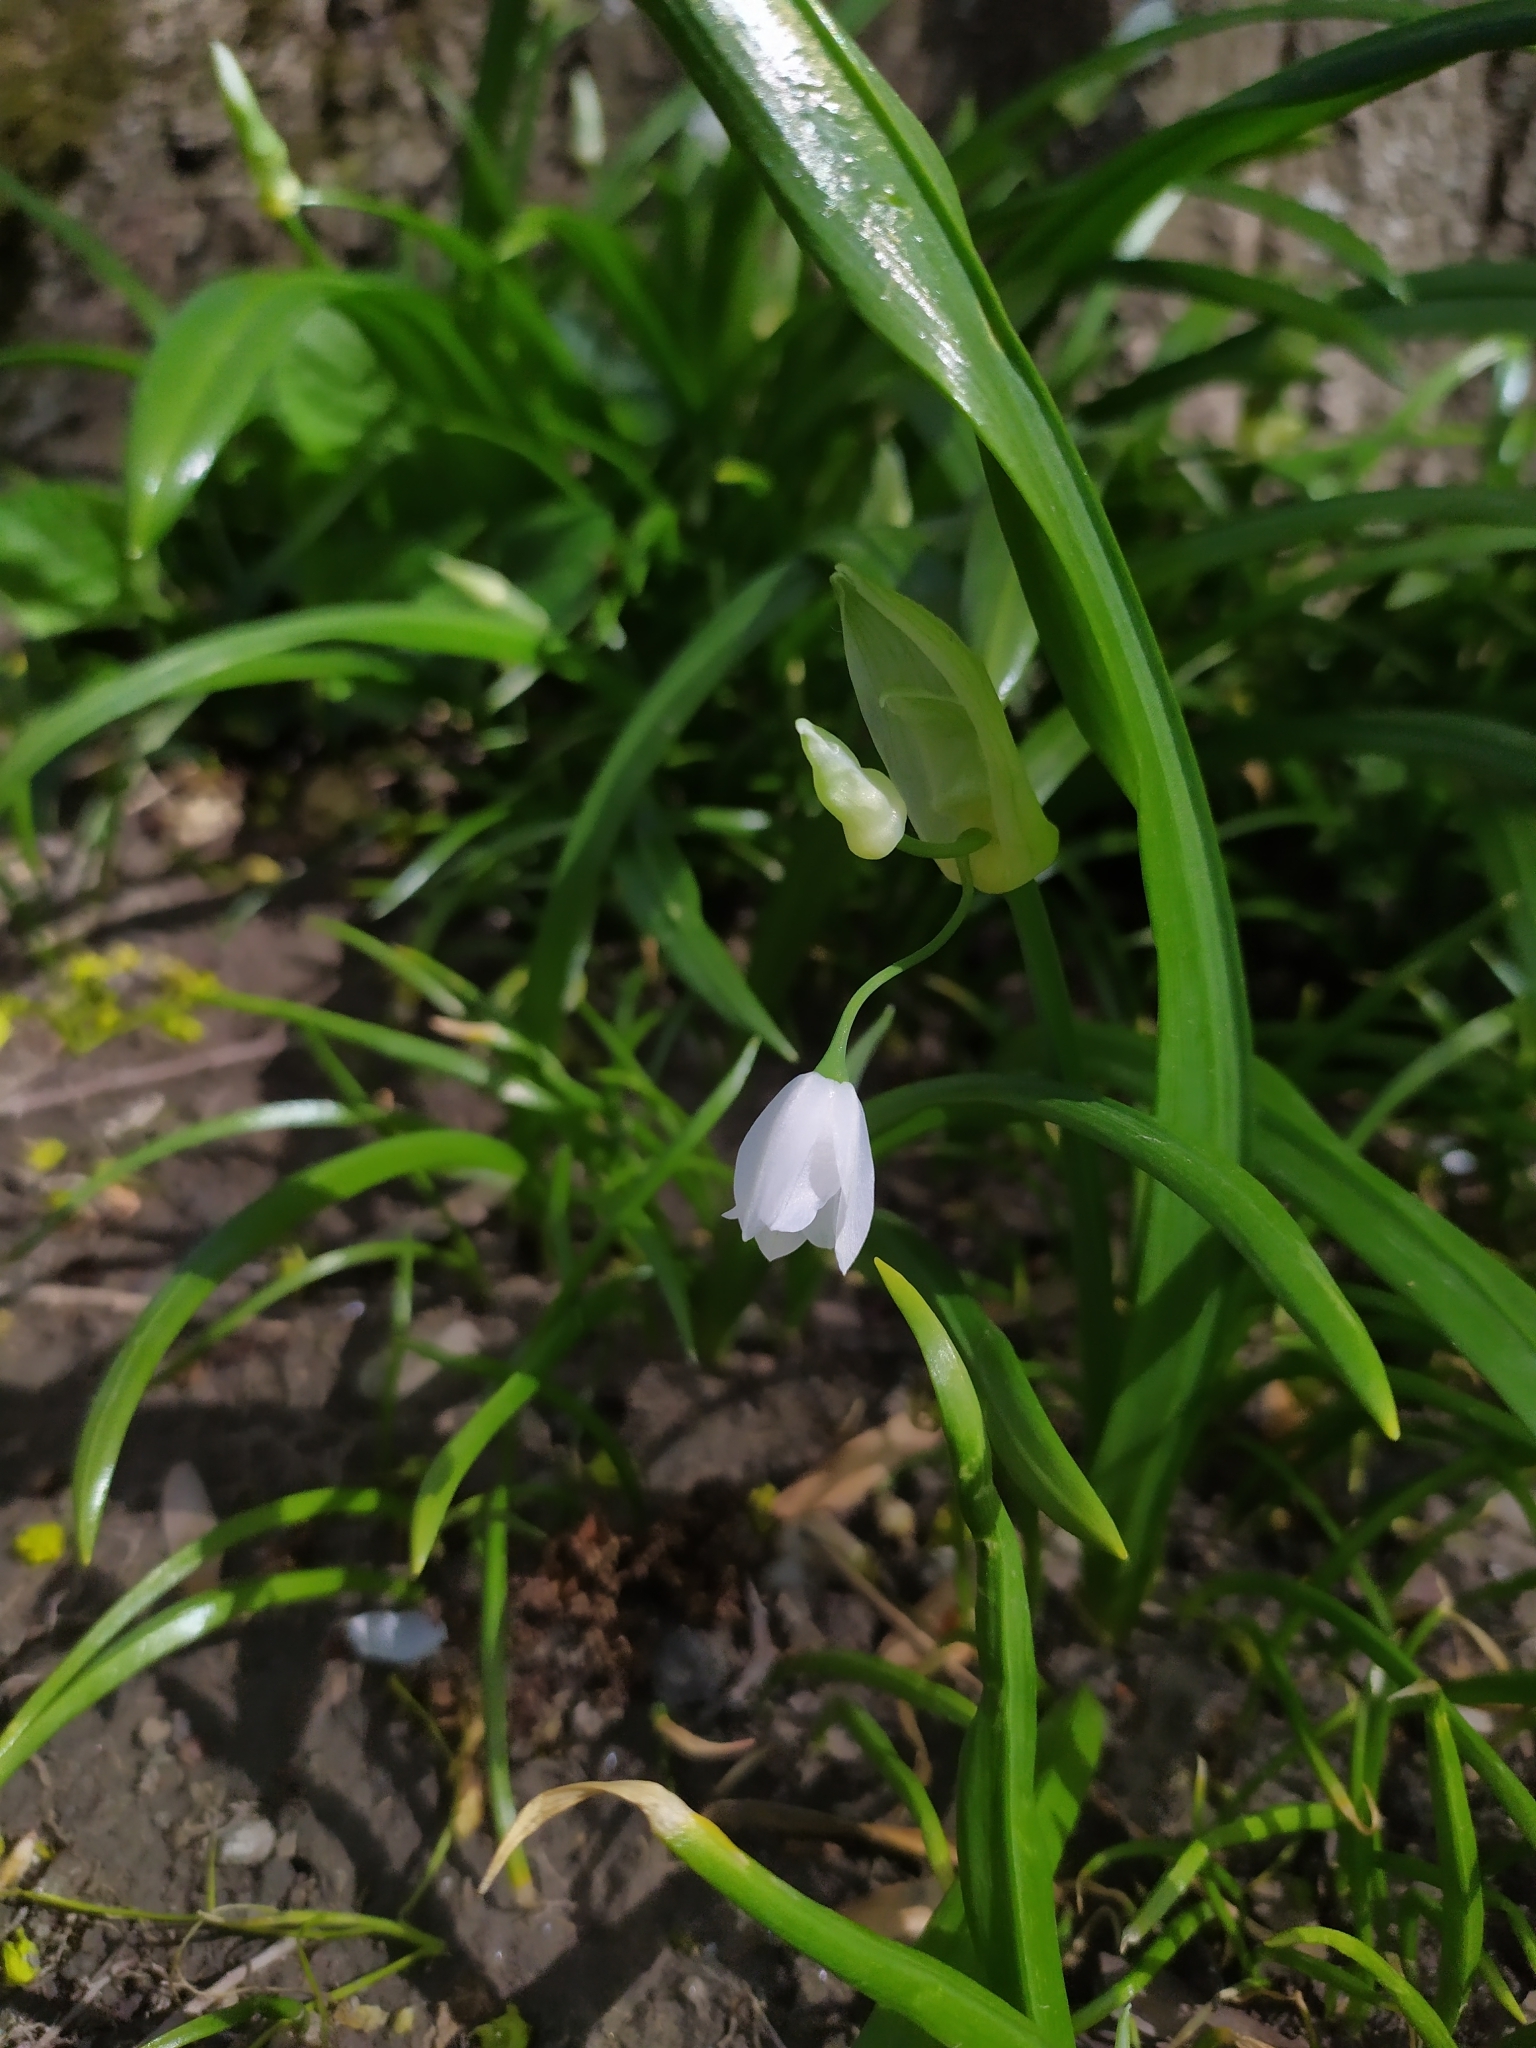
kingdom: Plantae
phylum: Tracheophyta
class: Liliopsida
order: Asparagales
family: Amaryllidaceae
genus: Allium
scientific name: Allium paradoxum
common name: Few-flowered garlic
